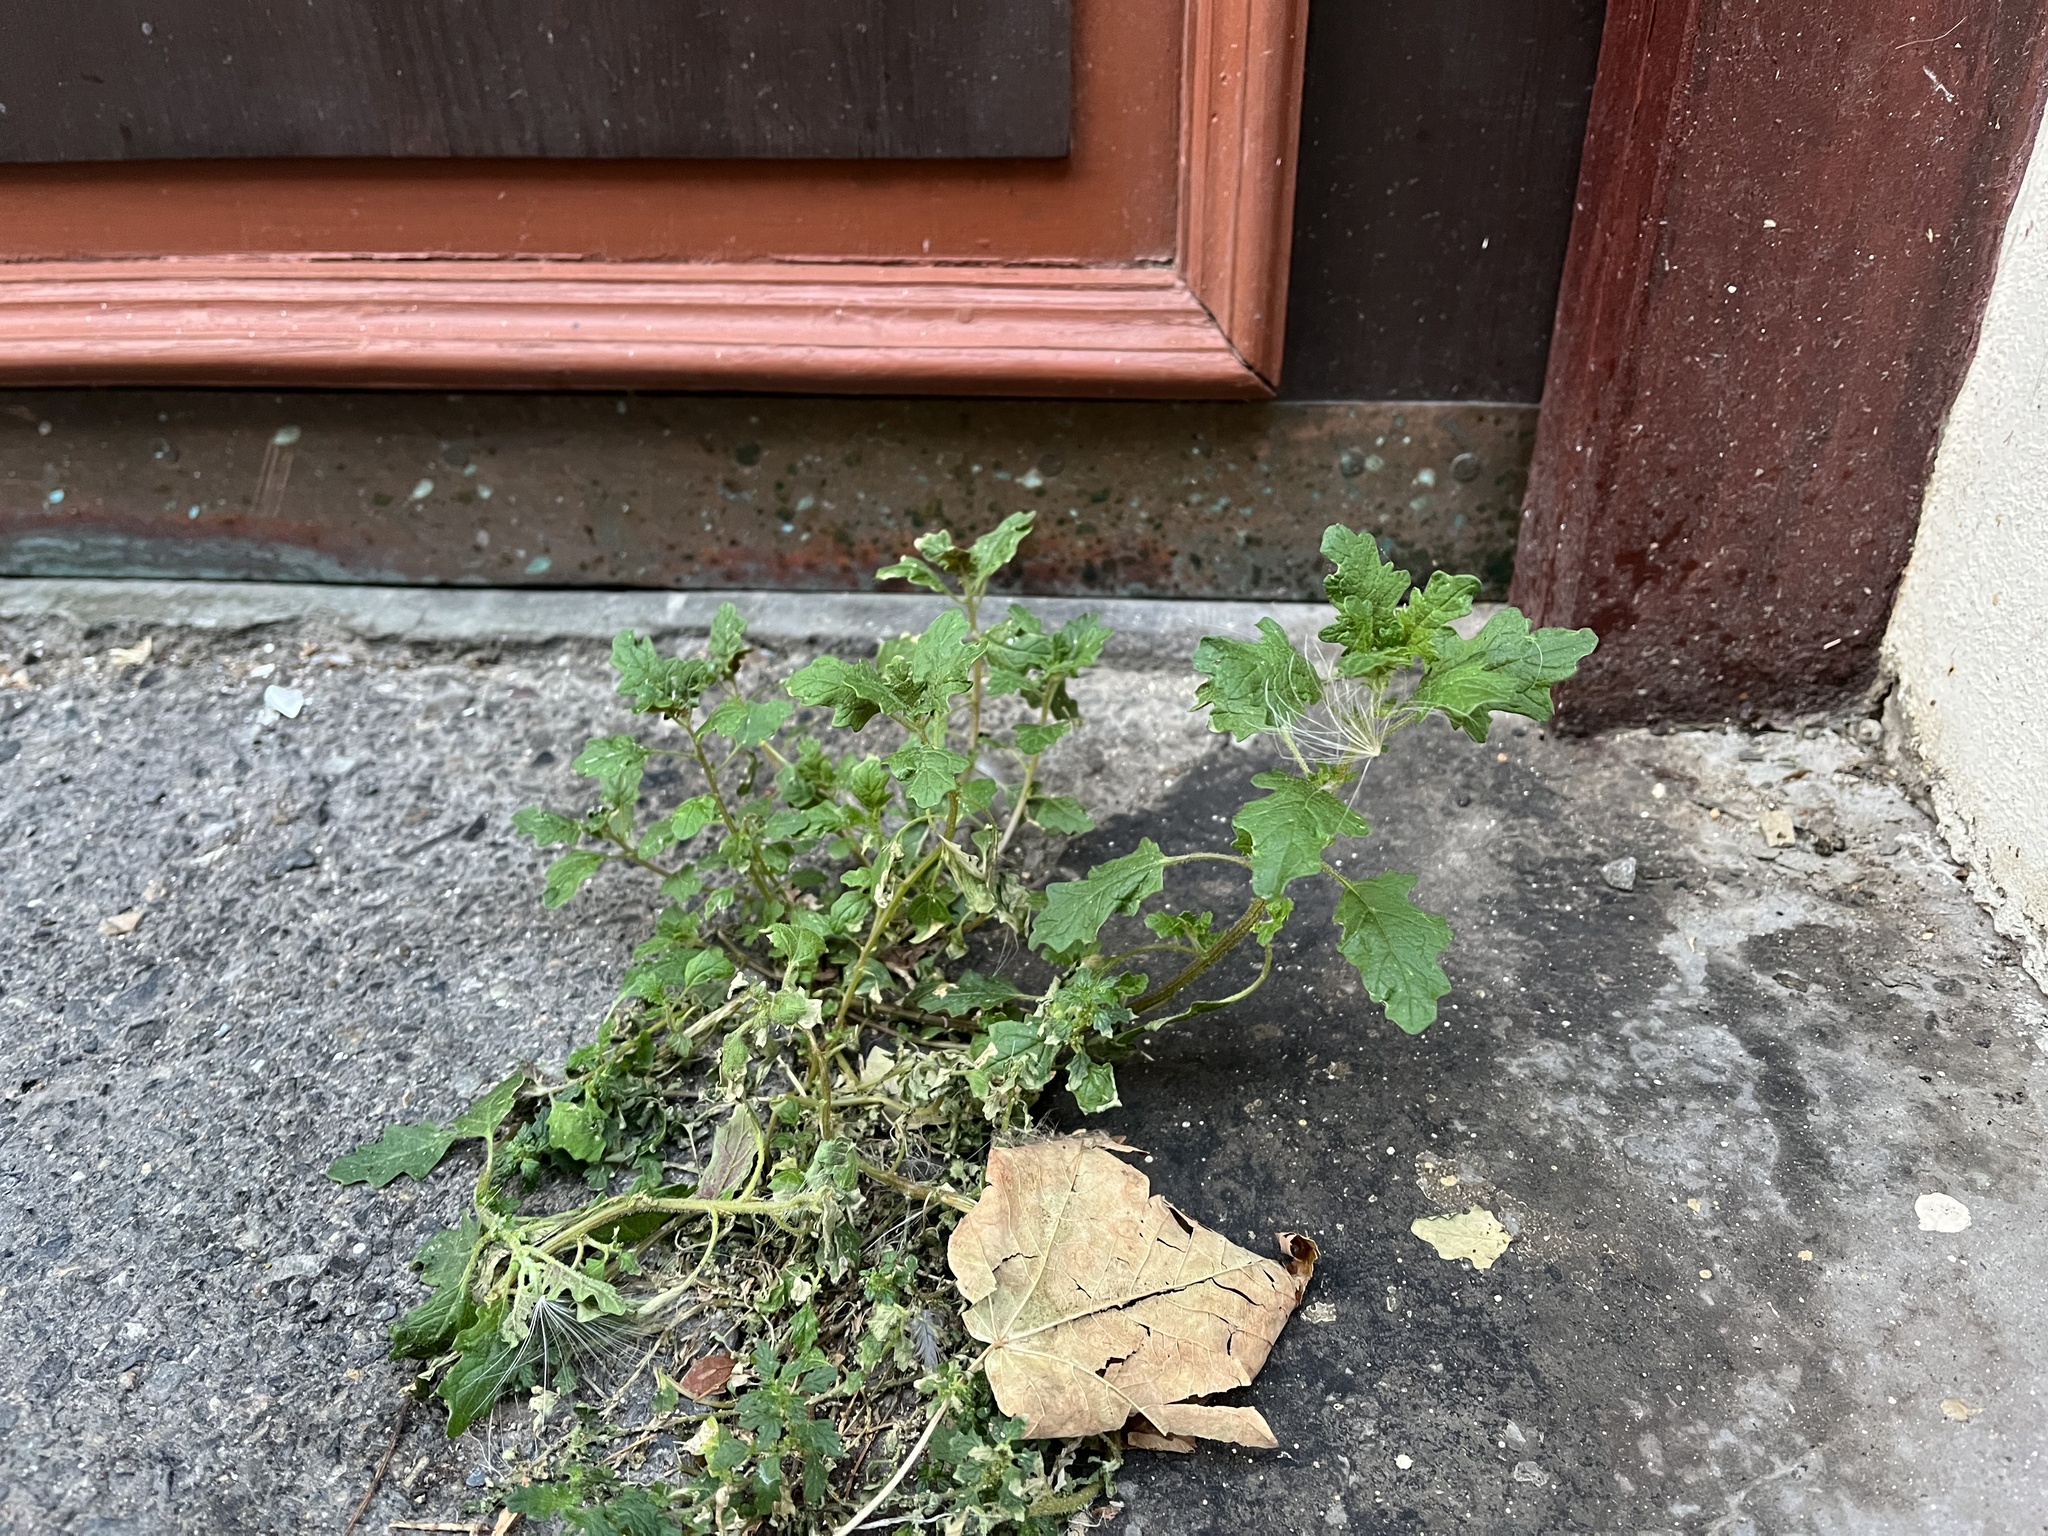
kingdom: Plantae
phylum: Tracheophyta
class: Magnoliopsida
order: Caryophyllales
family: Amaranthaceae
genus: Dysphania
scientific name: Dysphania pumilio
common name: Clammy goosefoot
